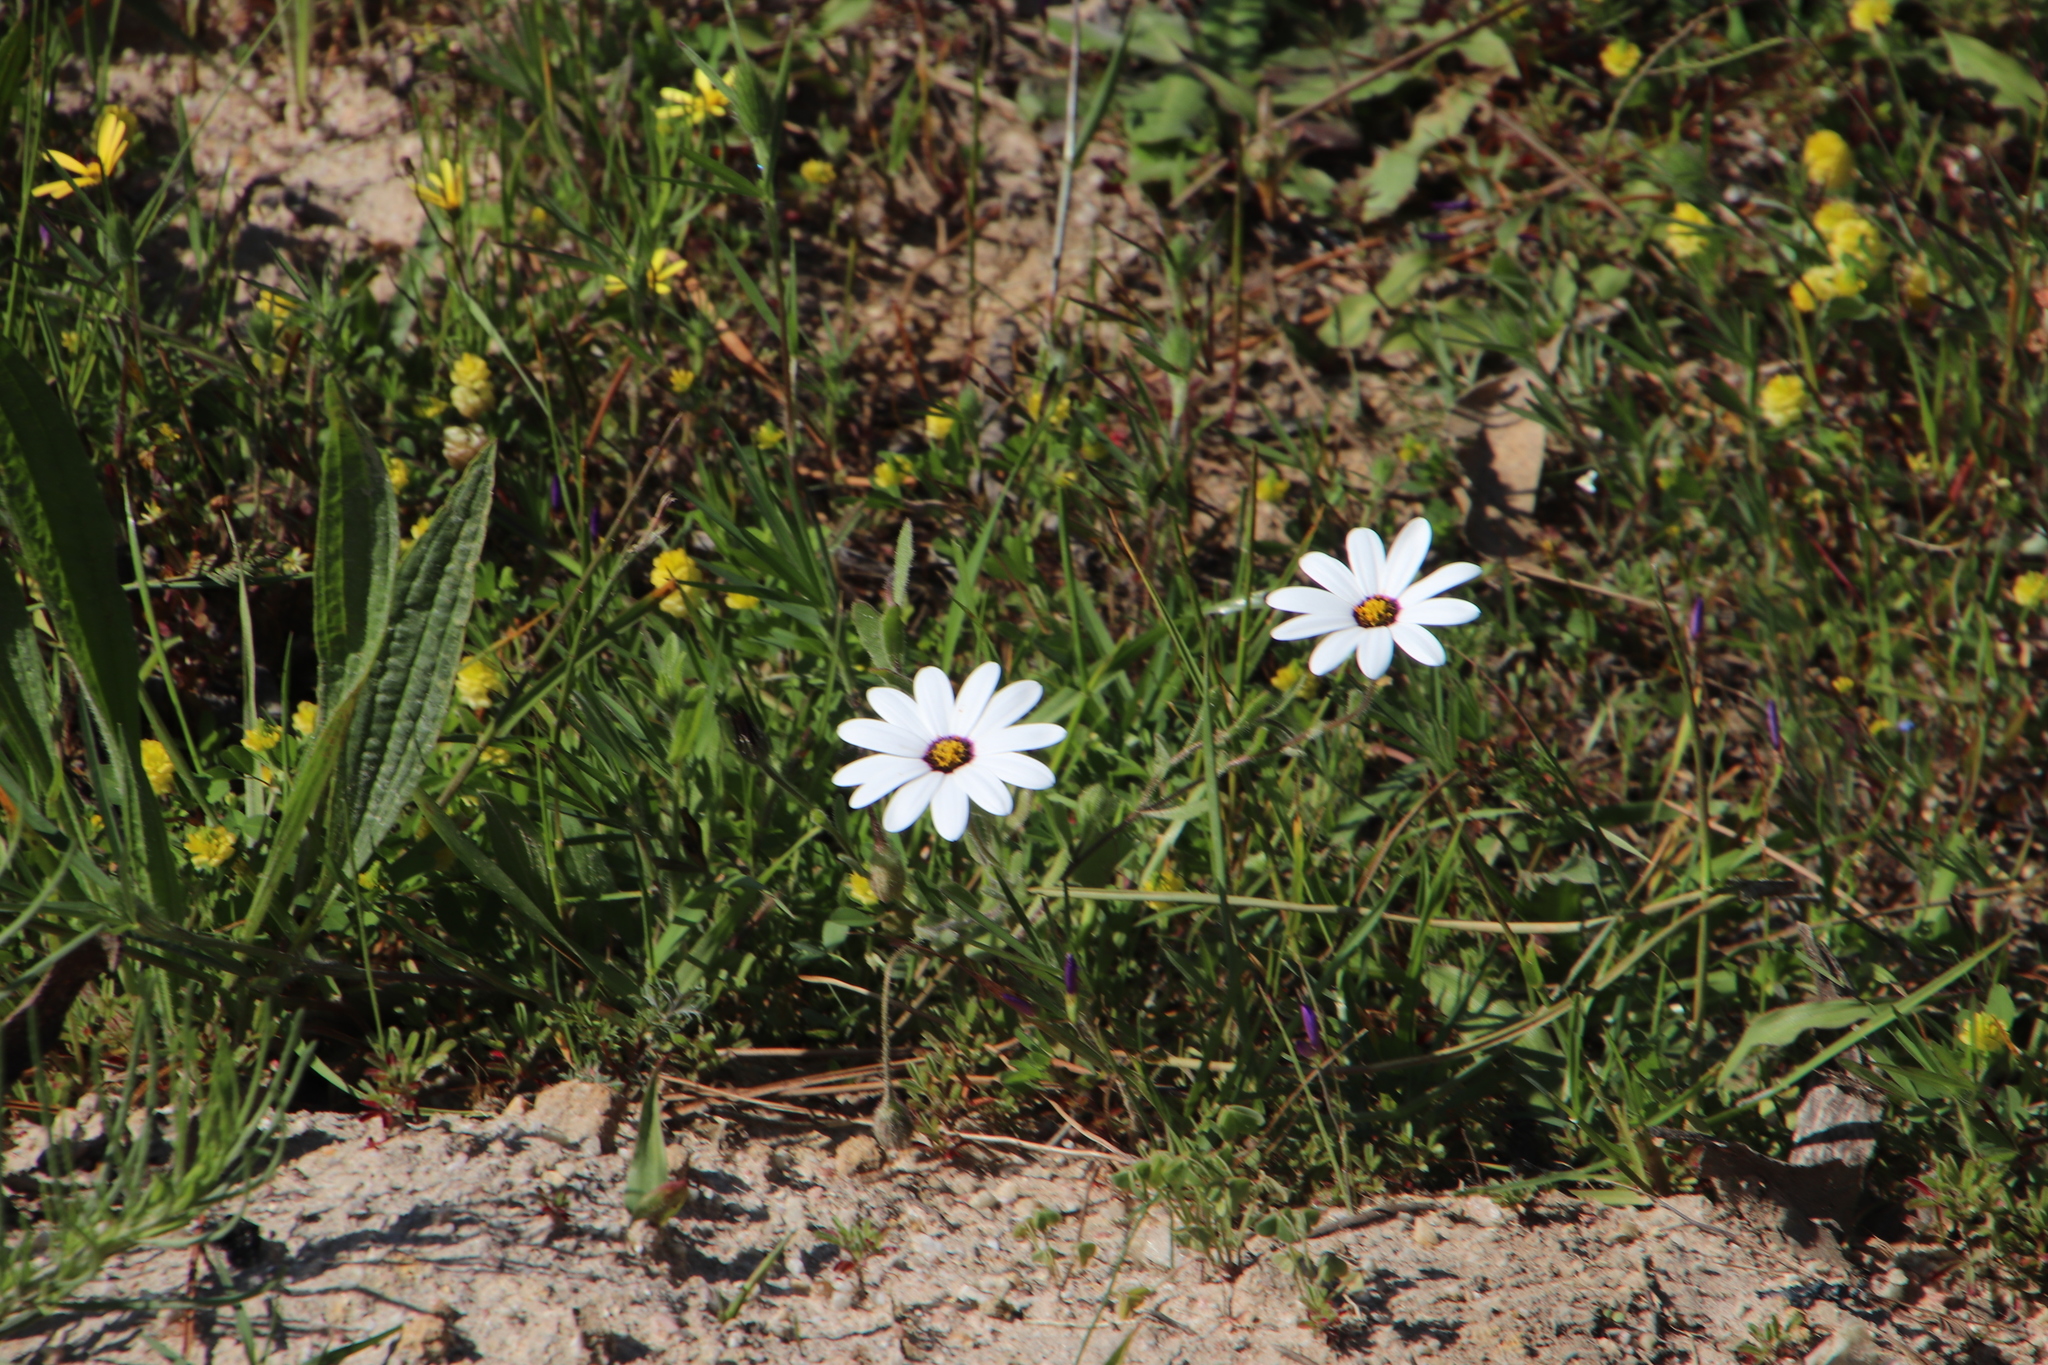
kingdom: Plantae
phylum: Tracheophyta
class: Magnoliopsida
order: Asterales
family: Asteraceae
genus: Dimorphotheca
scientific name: Dimorphotheca pluvialis
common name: Weather prophet
